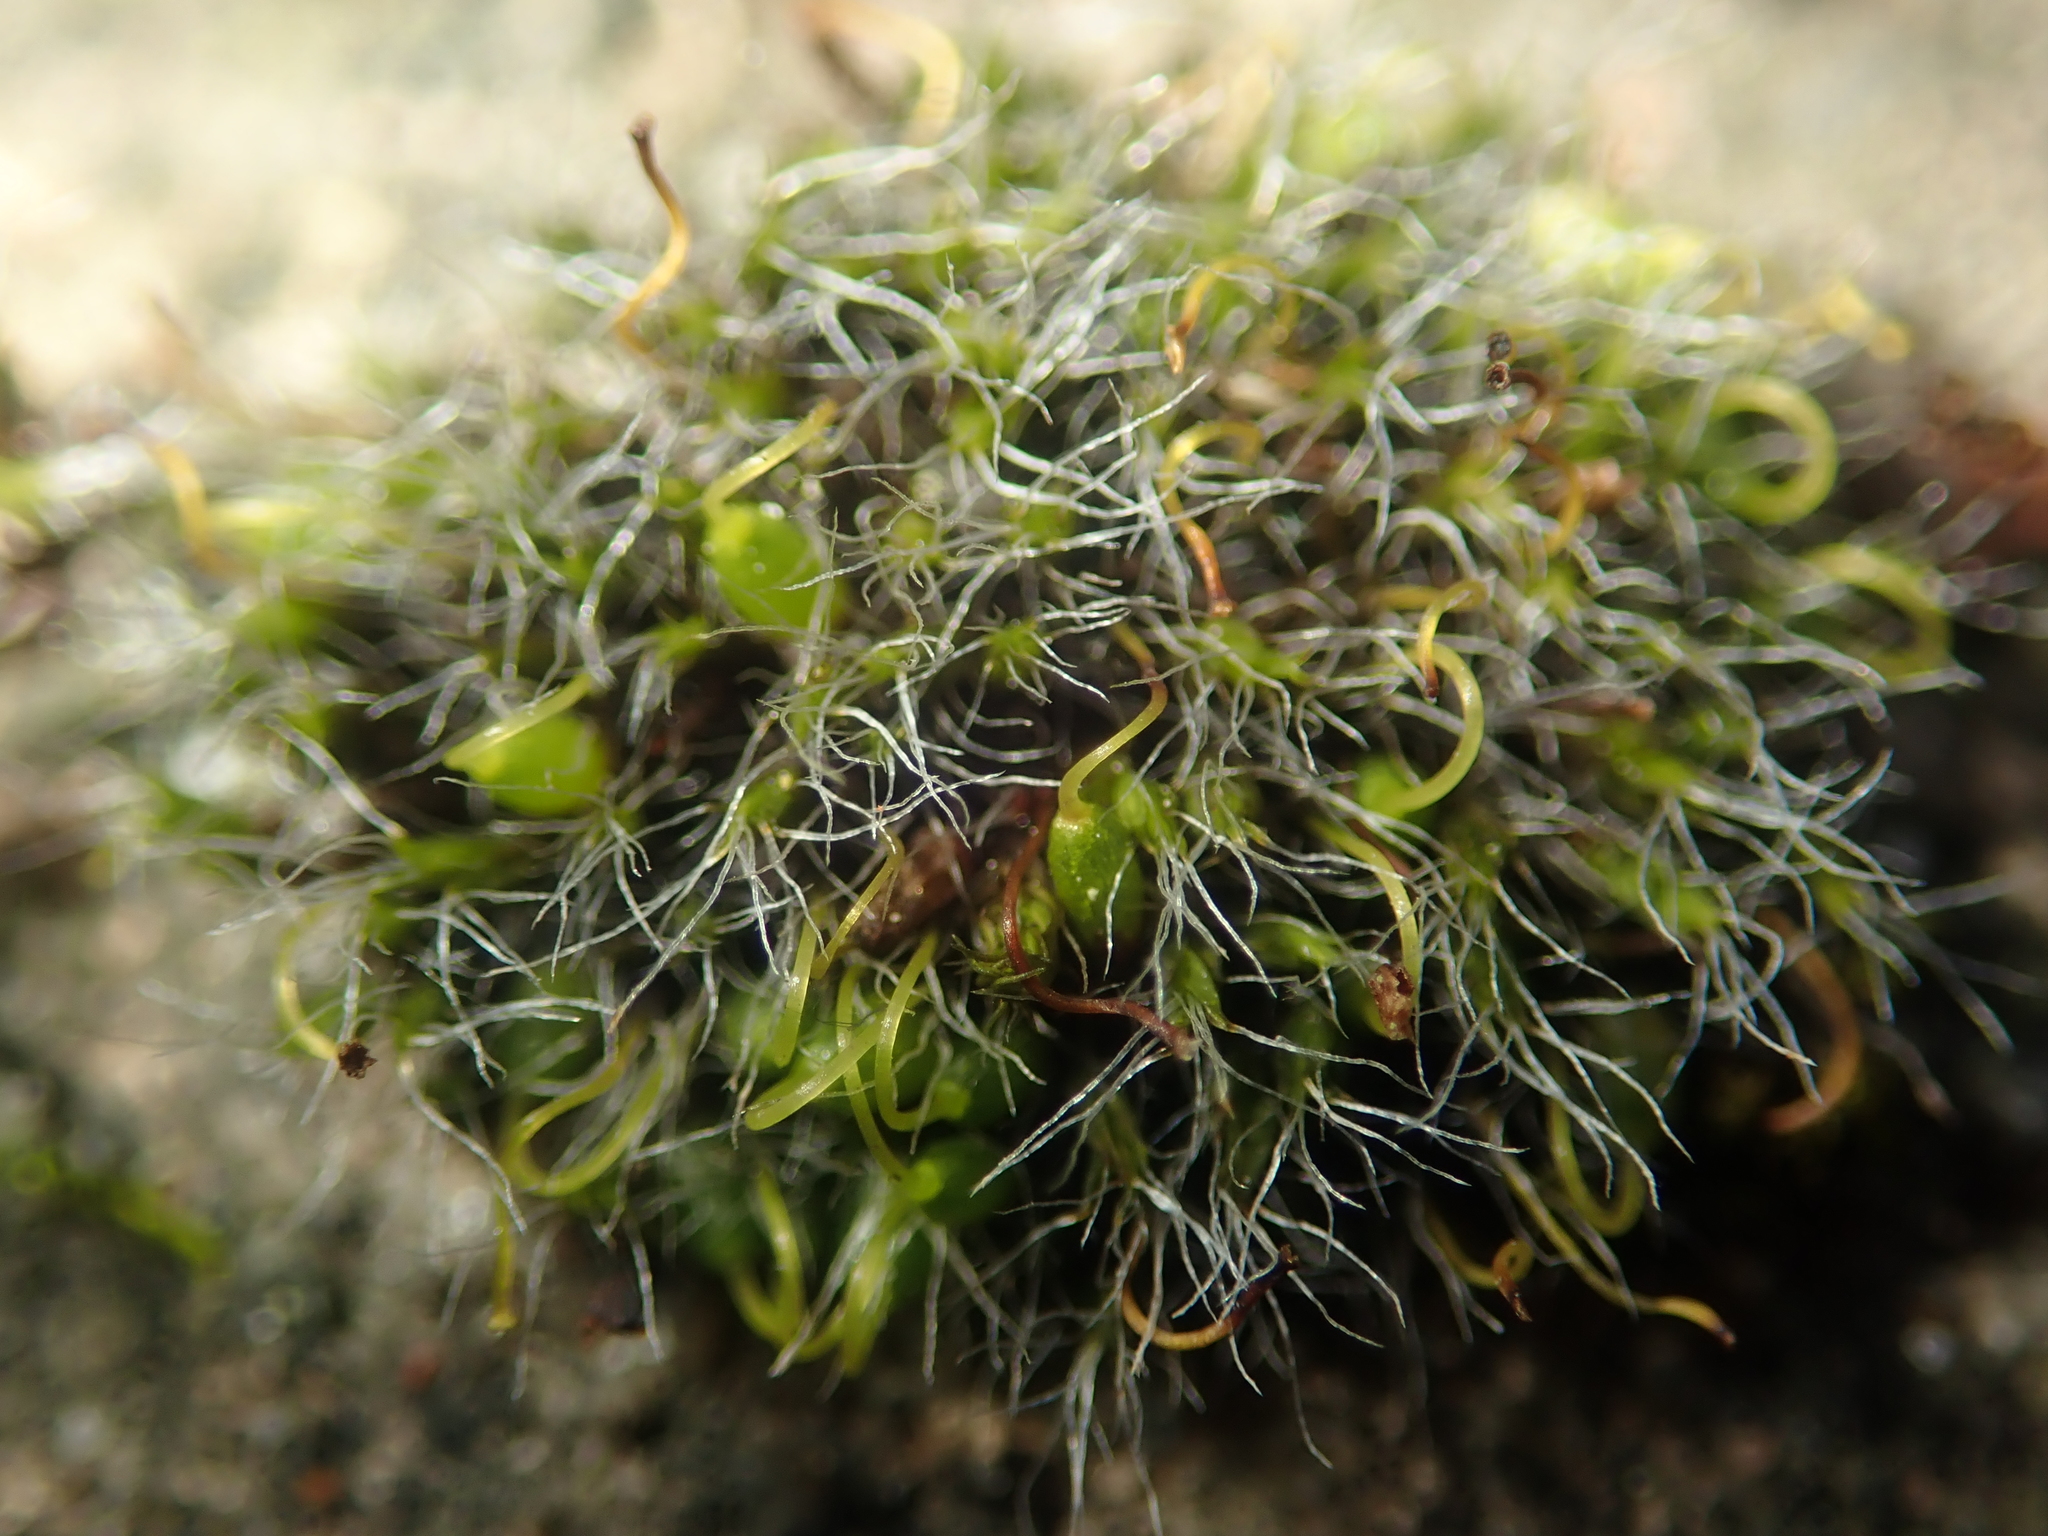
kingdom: Plantae
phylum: Bryophyta
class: Bryopsida
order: Grimmiales
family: Grimmiaceae
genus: Grimmia
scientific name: Grimmia pulvinata
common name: Grey-cushioned grimmia
